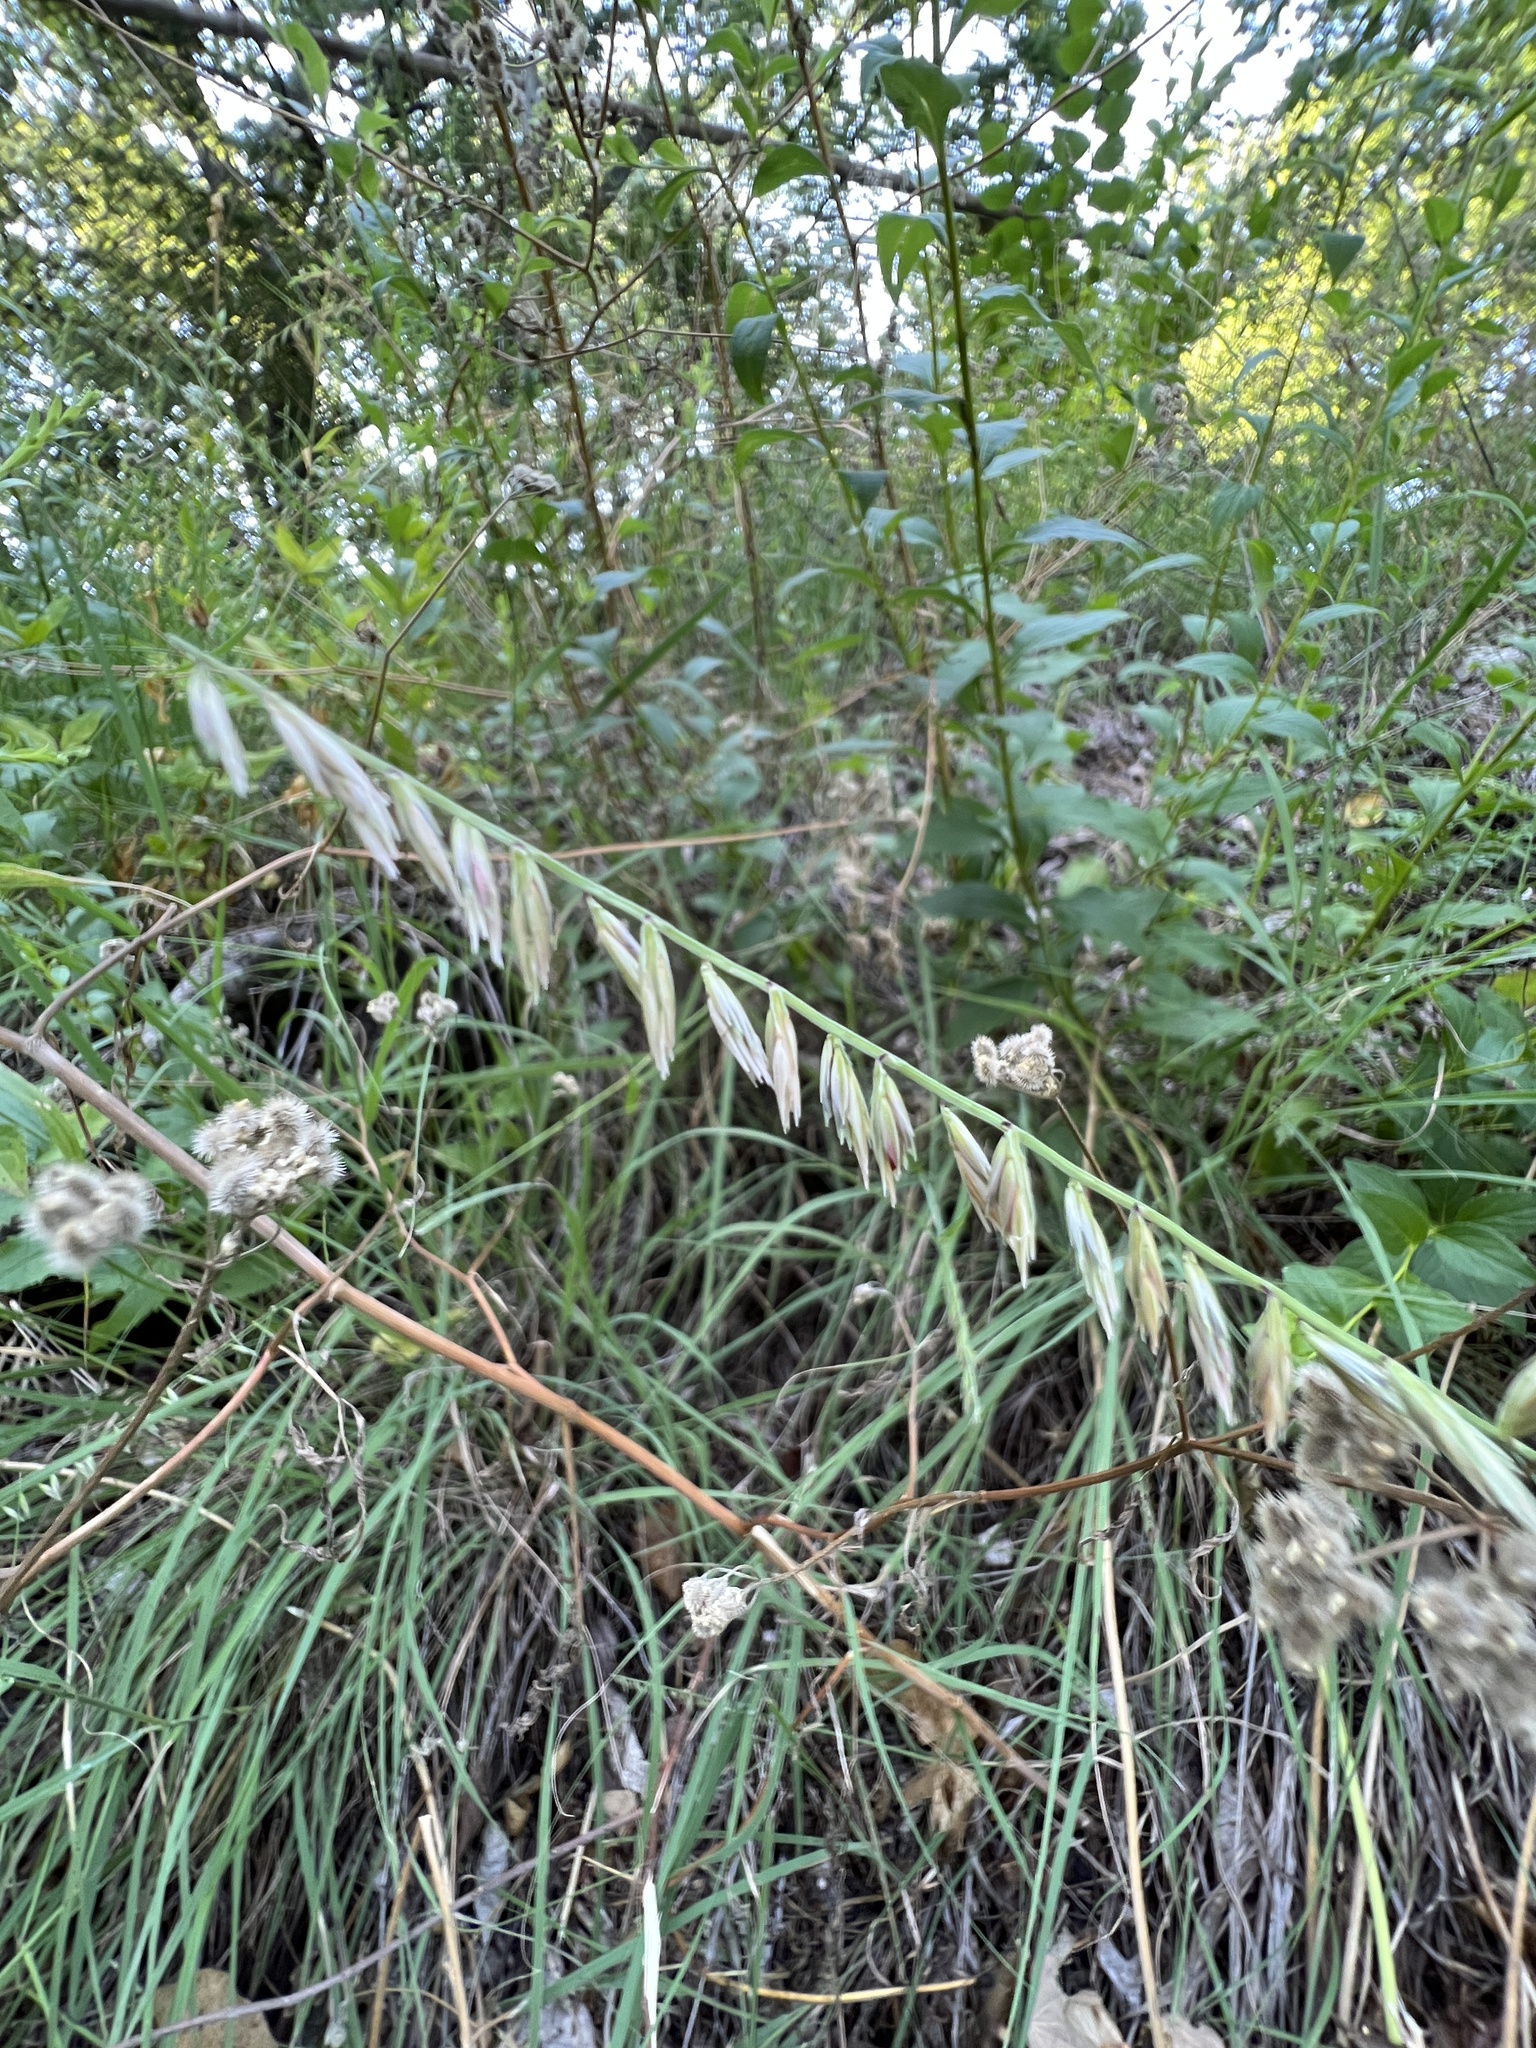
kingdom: Plantae
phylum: Tracheophyta
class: Liliopsida
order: Poales
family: Poaceae
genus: Bouteloua
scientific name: Bouteloua curtipendula
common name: Side-oats grama
